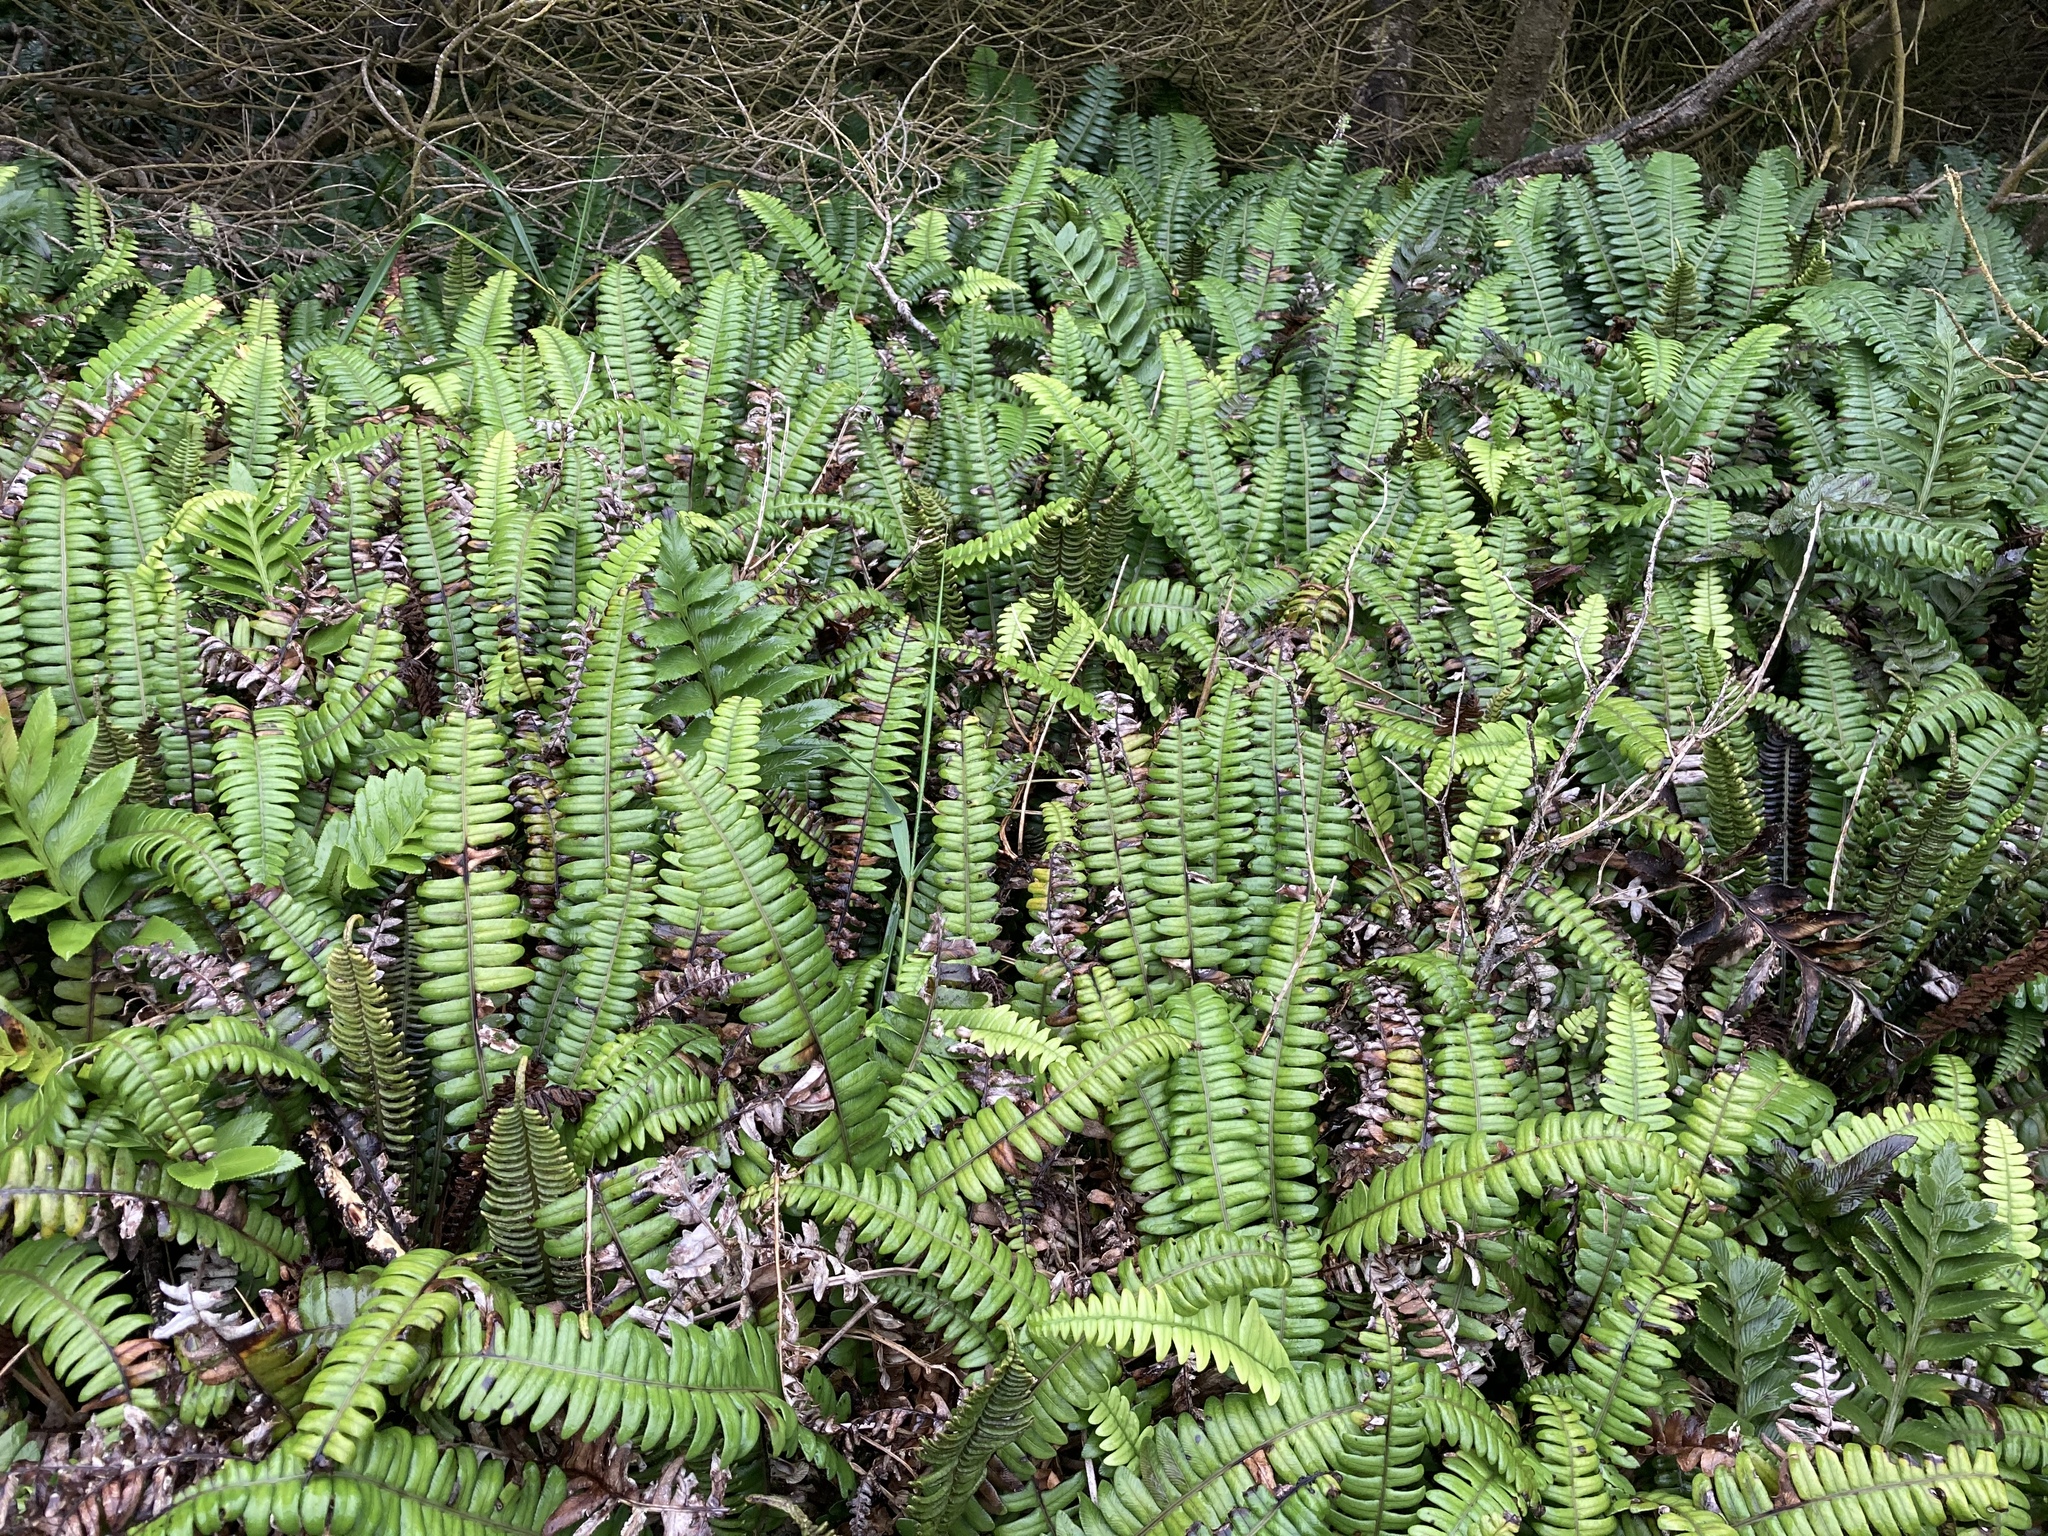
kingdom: Plantae
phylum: Tracheophyta
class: Polypodiopsida
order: Polypodiales
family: Blechnaceae
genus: Austroblechnum
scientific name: Austroblechnum durum
